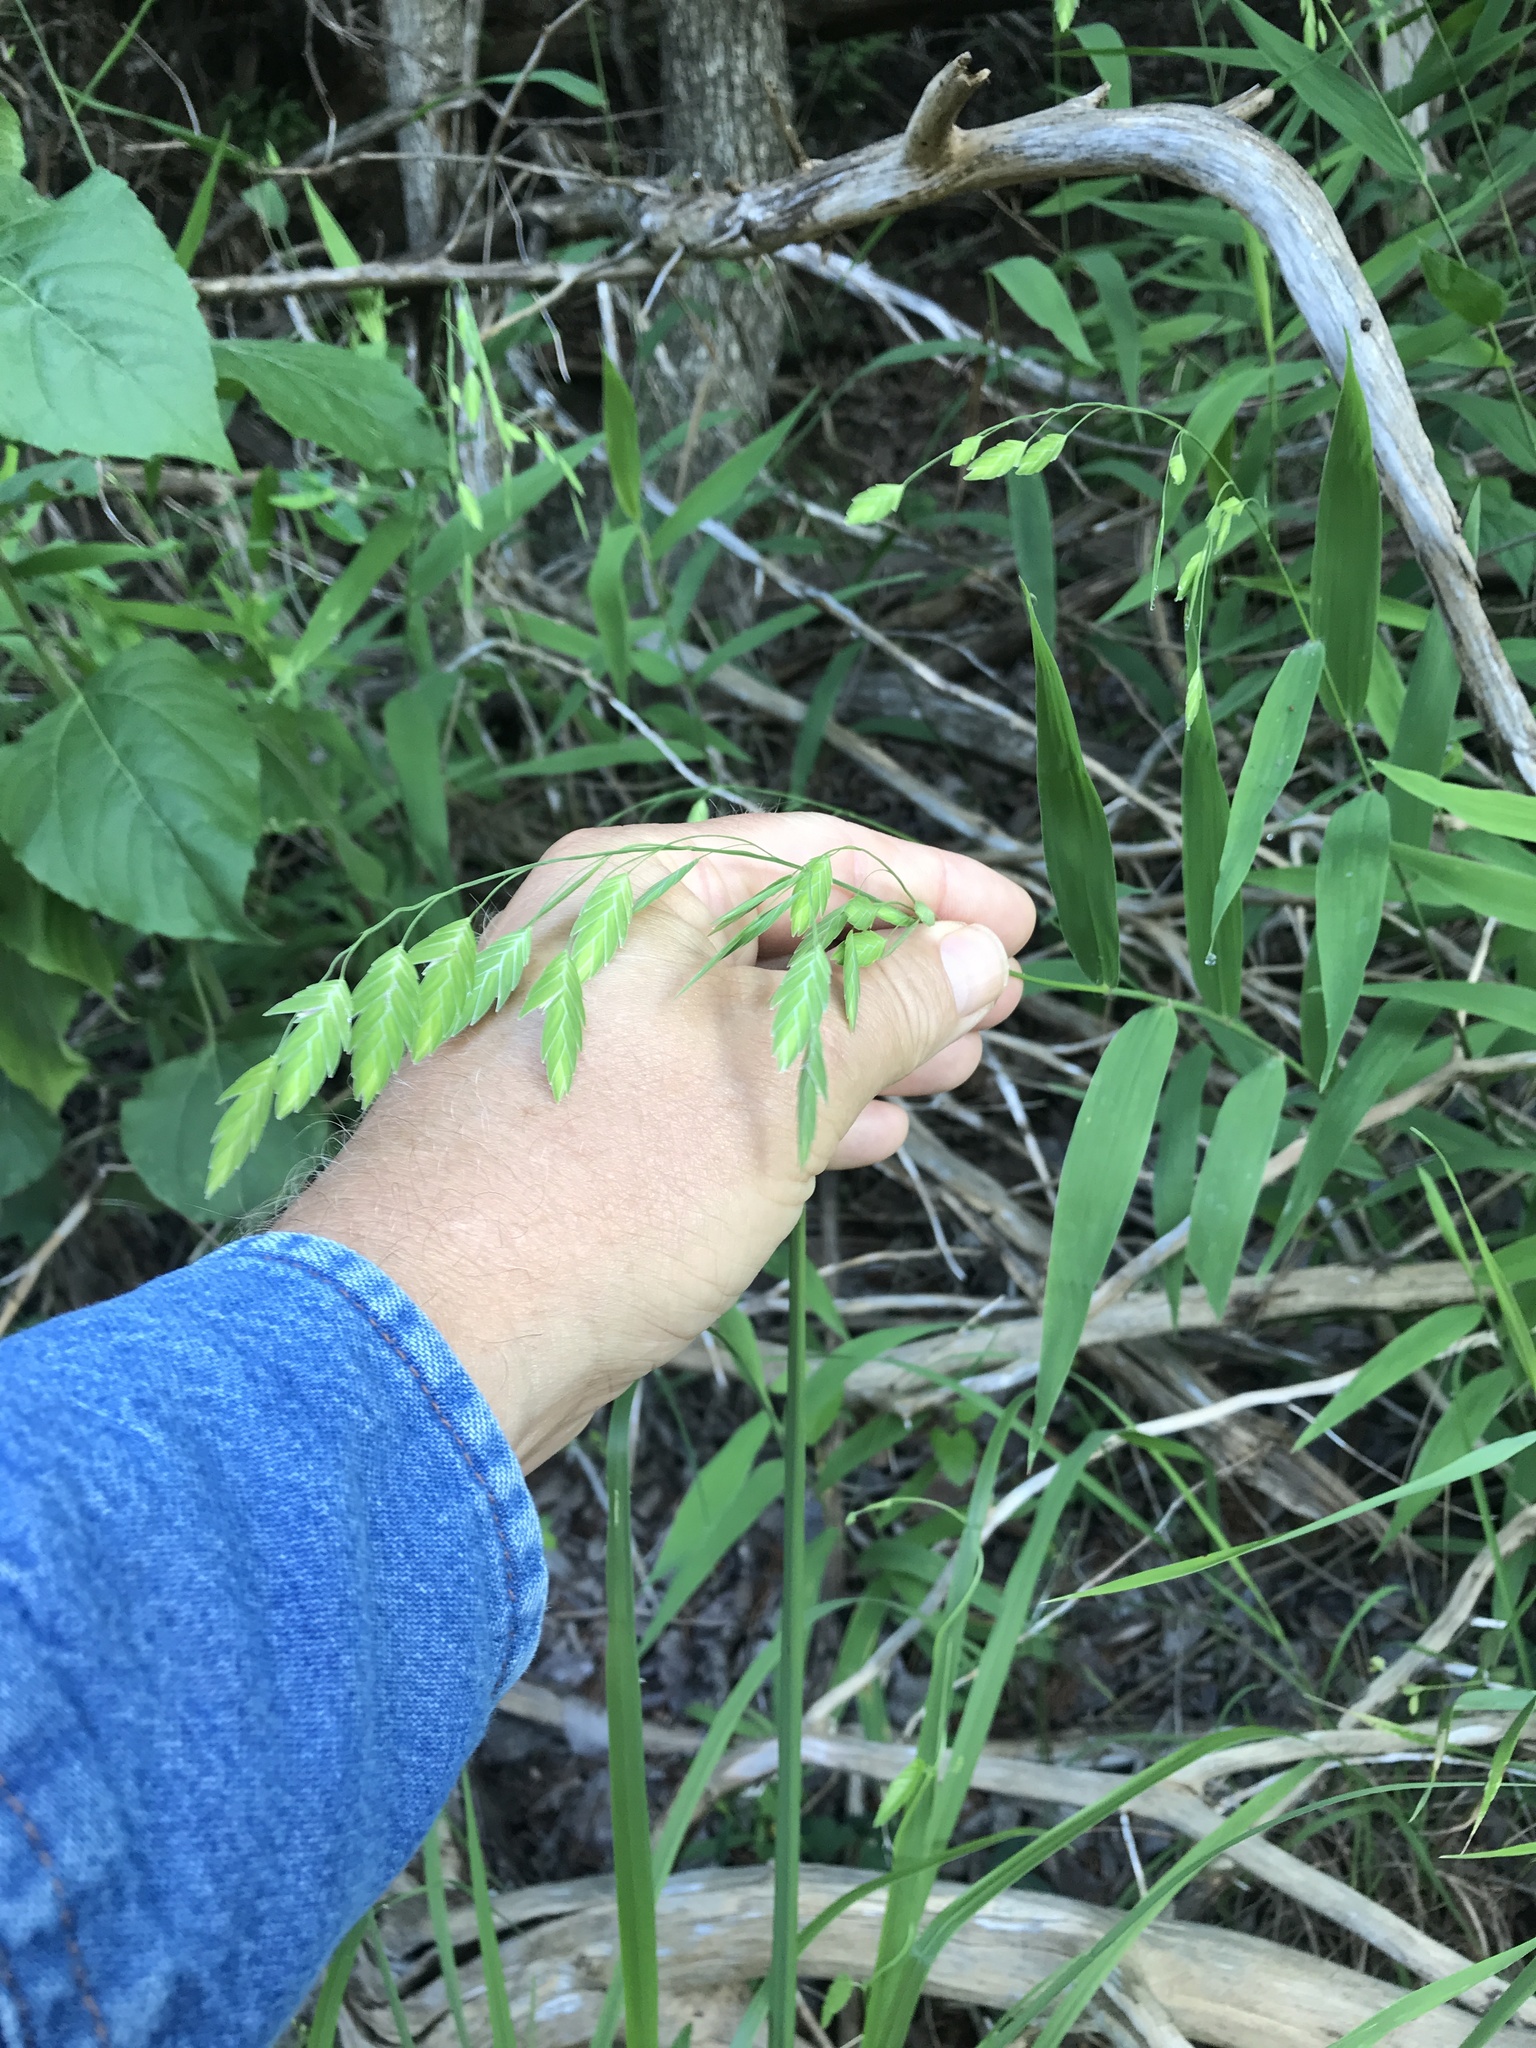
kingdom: Plantae
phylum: Tracheophyta
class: Liliopsida
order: Poales
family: Poaceae
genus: Chasmanthium
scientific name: Chasmanthium latifolium
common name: Broad-leaved chasmanthium
